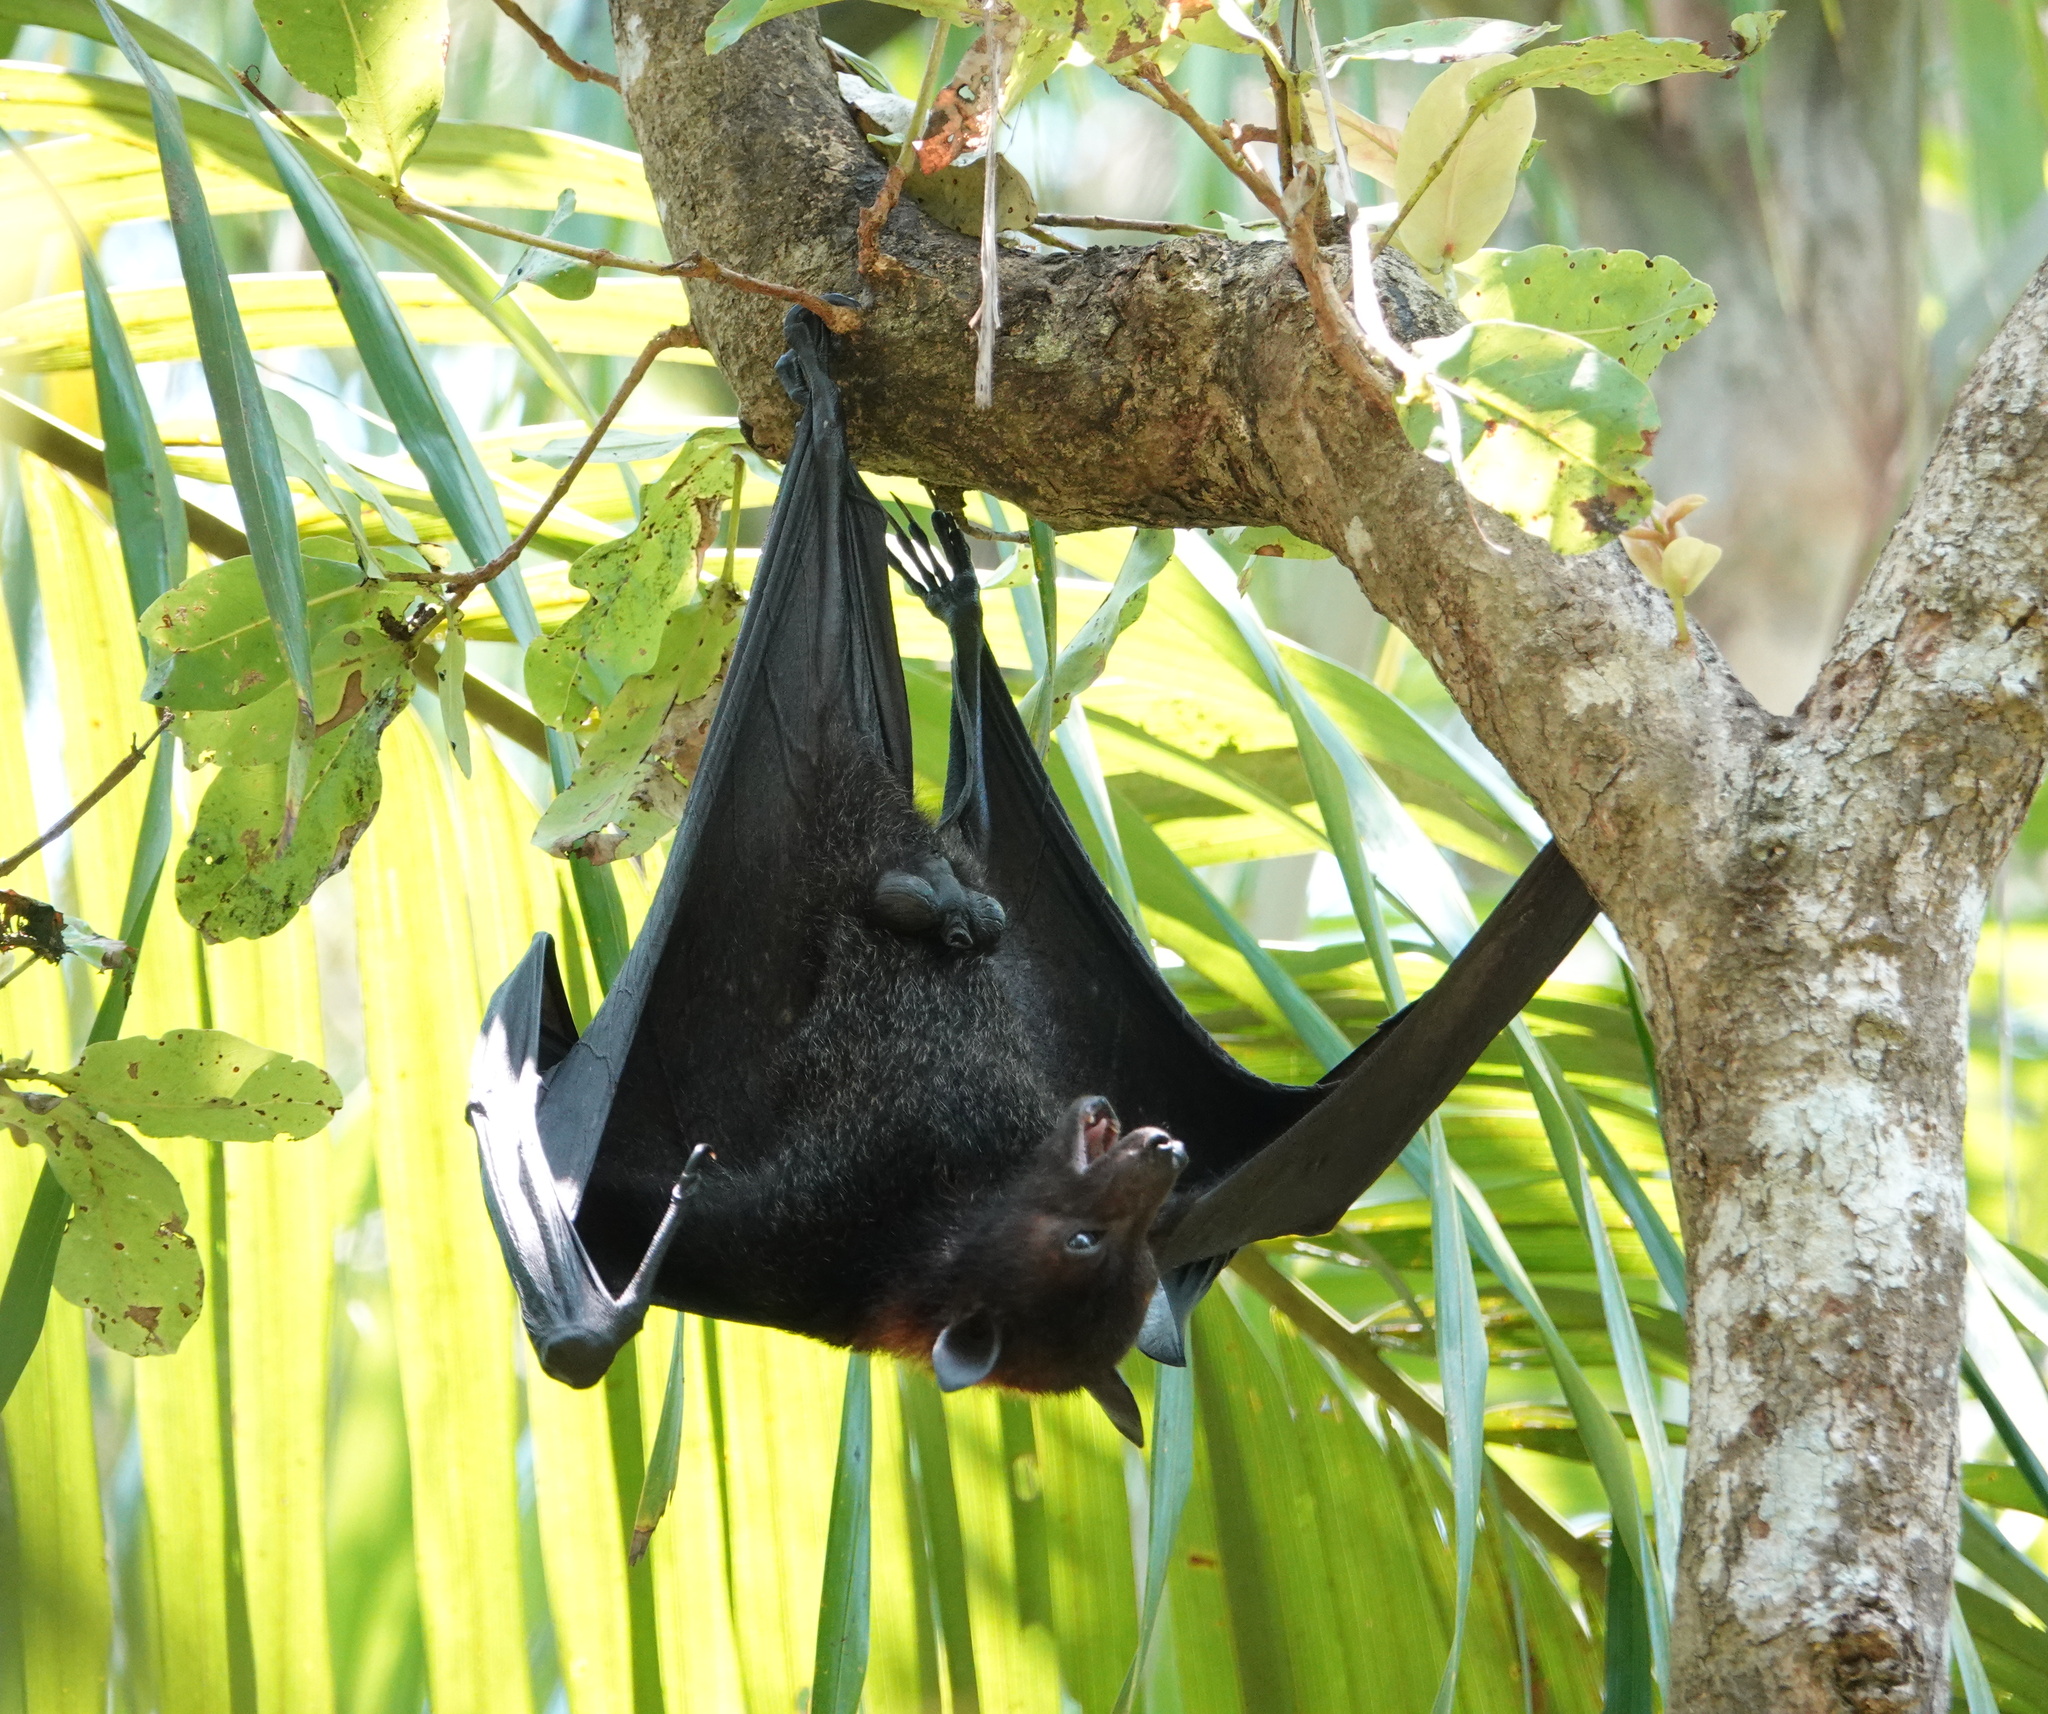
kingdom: Animalia
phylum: Chordata
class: Mammalia
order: Chiroptera
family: Pteropodidae
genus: Pteropus
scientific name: Pteropus alecto
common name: Black flying fox
